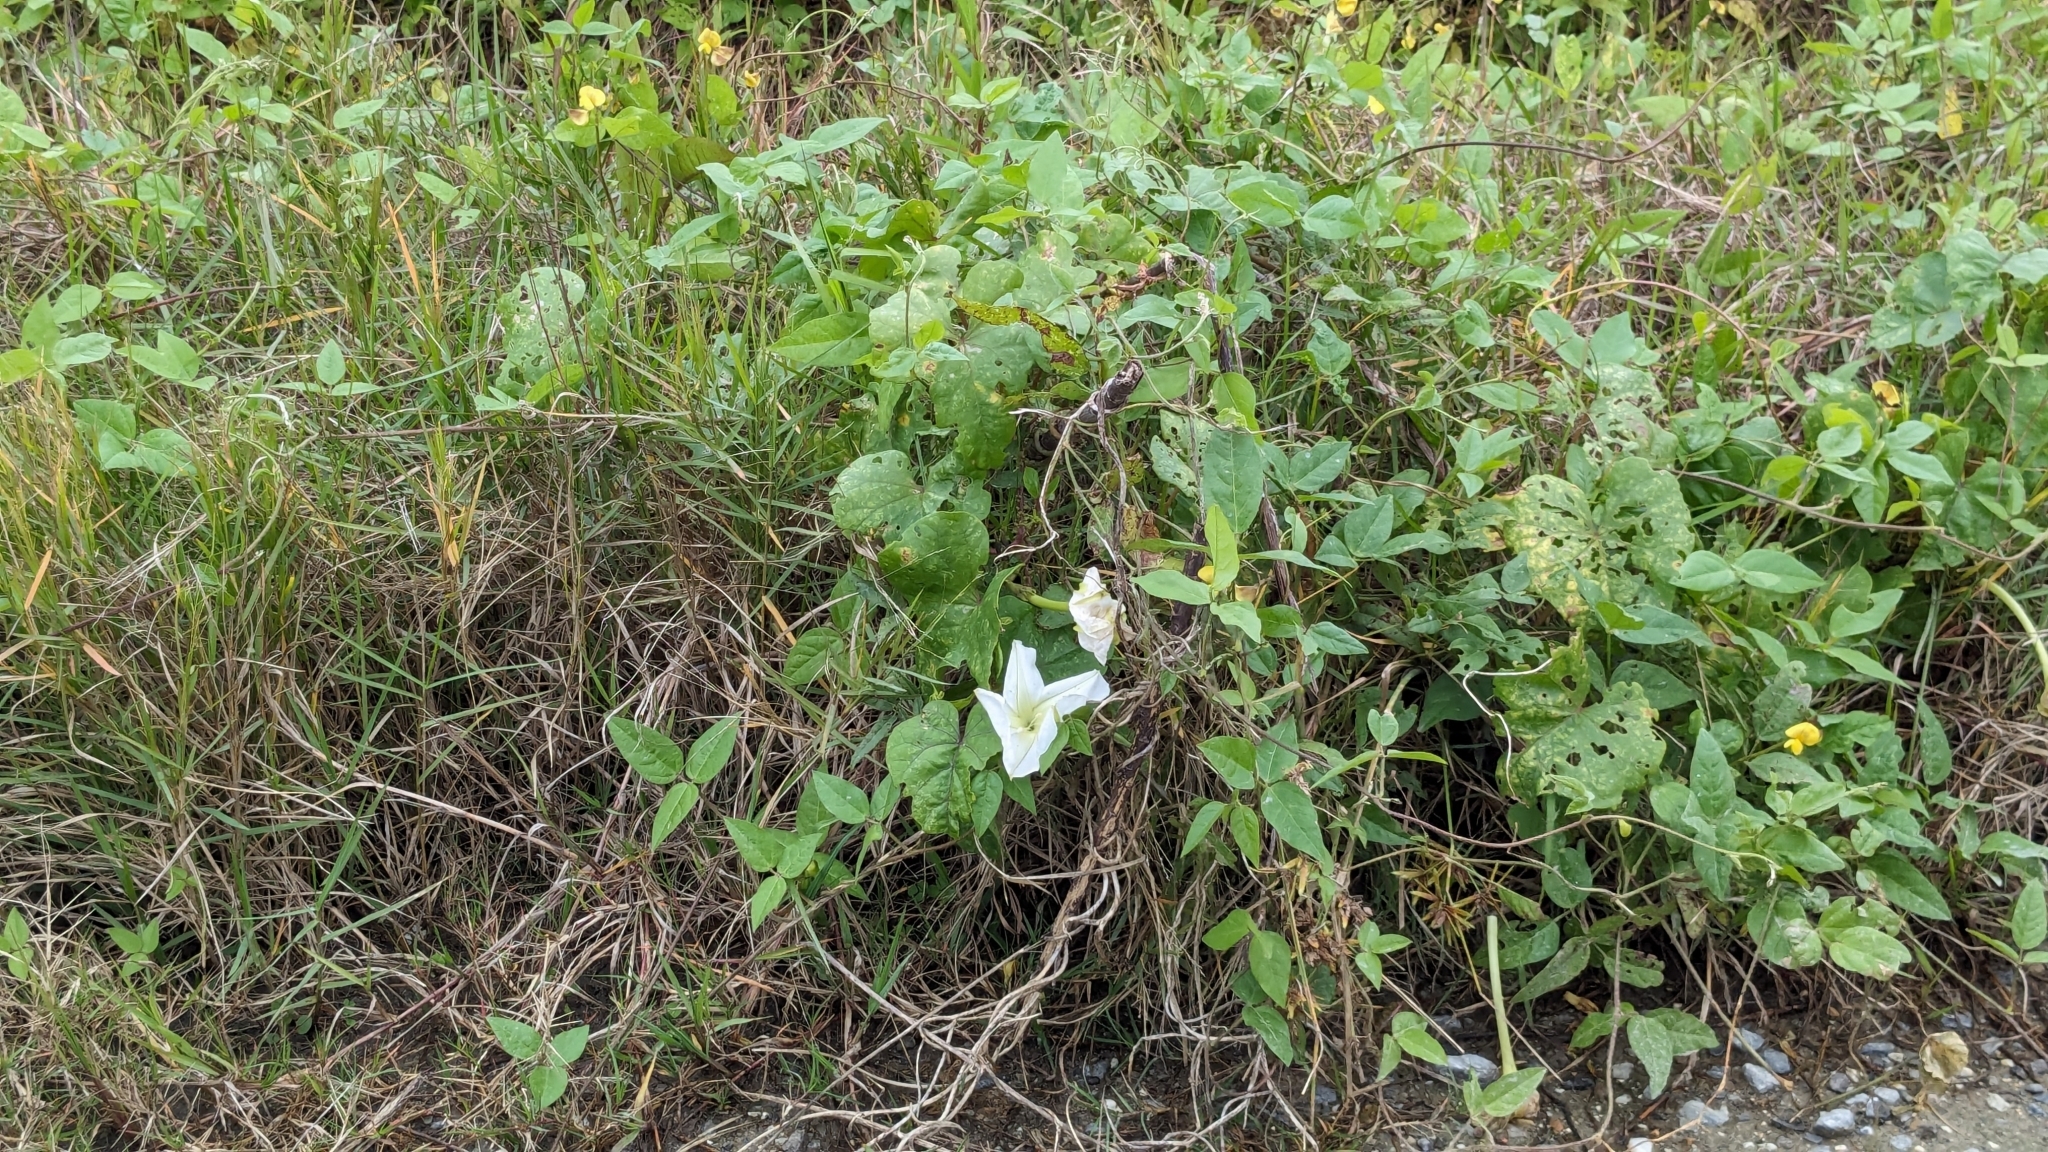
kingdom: Plantae
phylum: Tracheophyta
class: Magnoliopsida
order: Solanales
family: Convolvulaceae
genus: Ipomoea
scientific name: Ipomoea alba
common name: Moonflower
